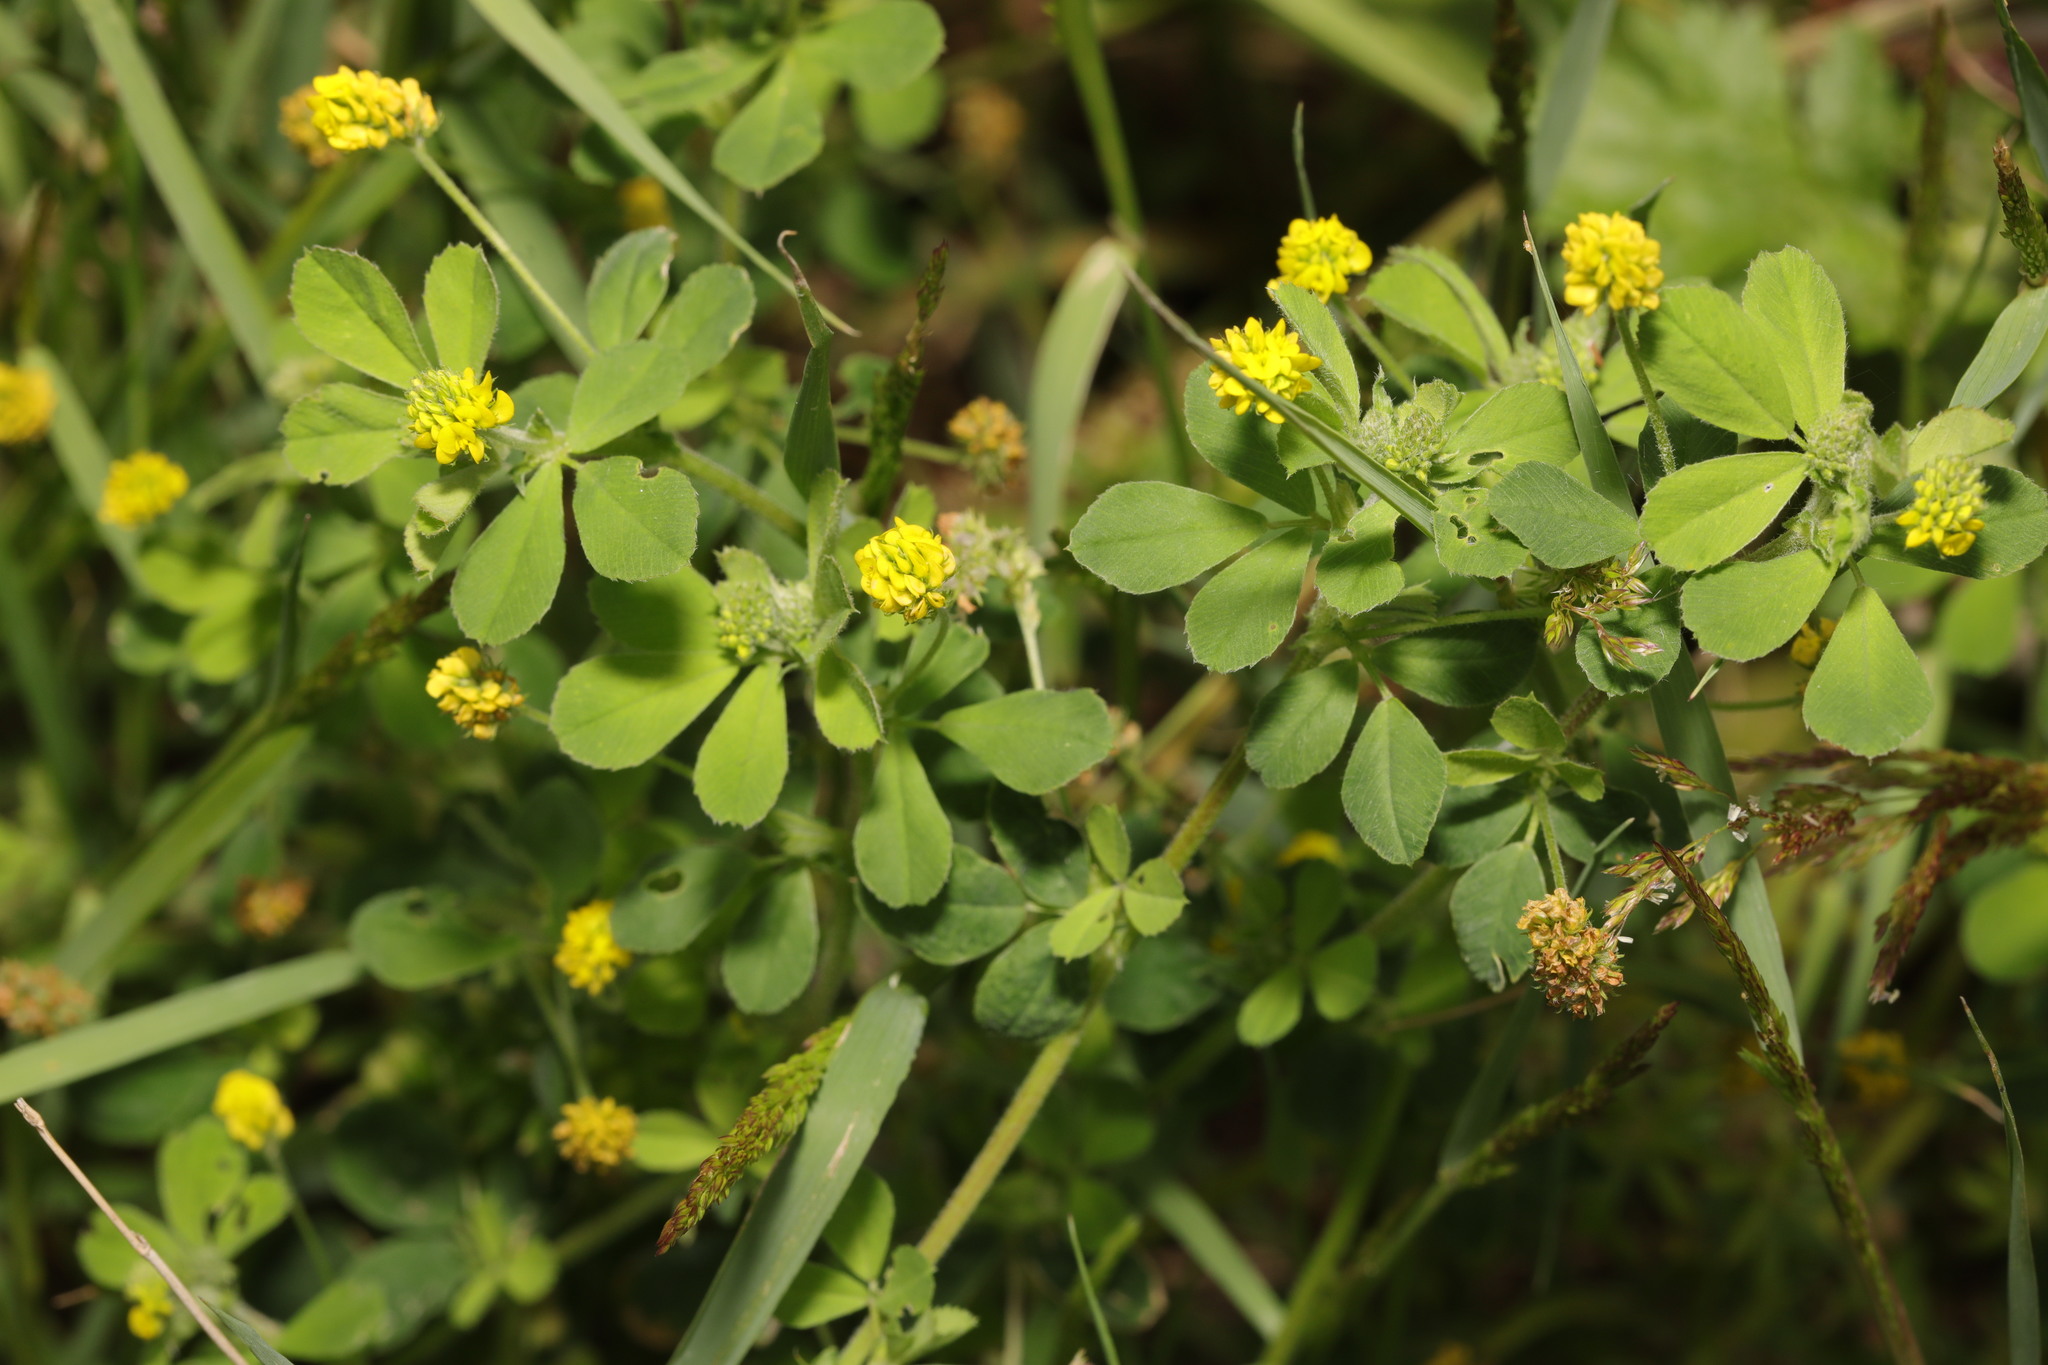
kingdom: Plantae
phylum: Tracheophyta
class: Magnoliopsida
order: Fabales
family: Fabaceae
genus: Medicago
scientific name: Medicago lupulina
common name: Black medick
